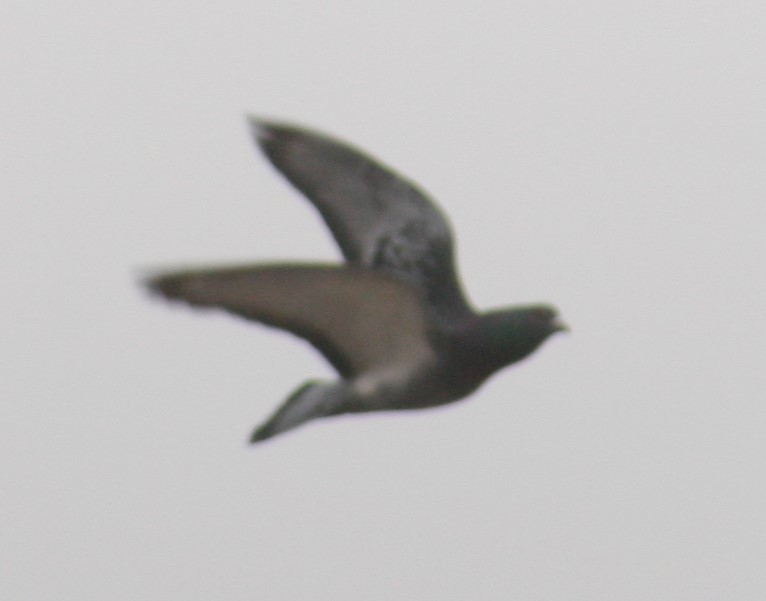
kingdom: Animalia
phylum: Chordata
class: Aves
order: Columbiformes
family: Columbidae
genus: Columba
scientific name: Columba livia
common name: Rock pigeon
